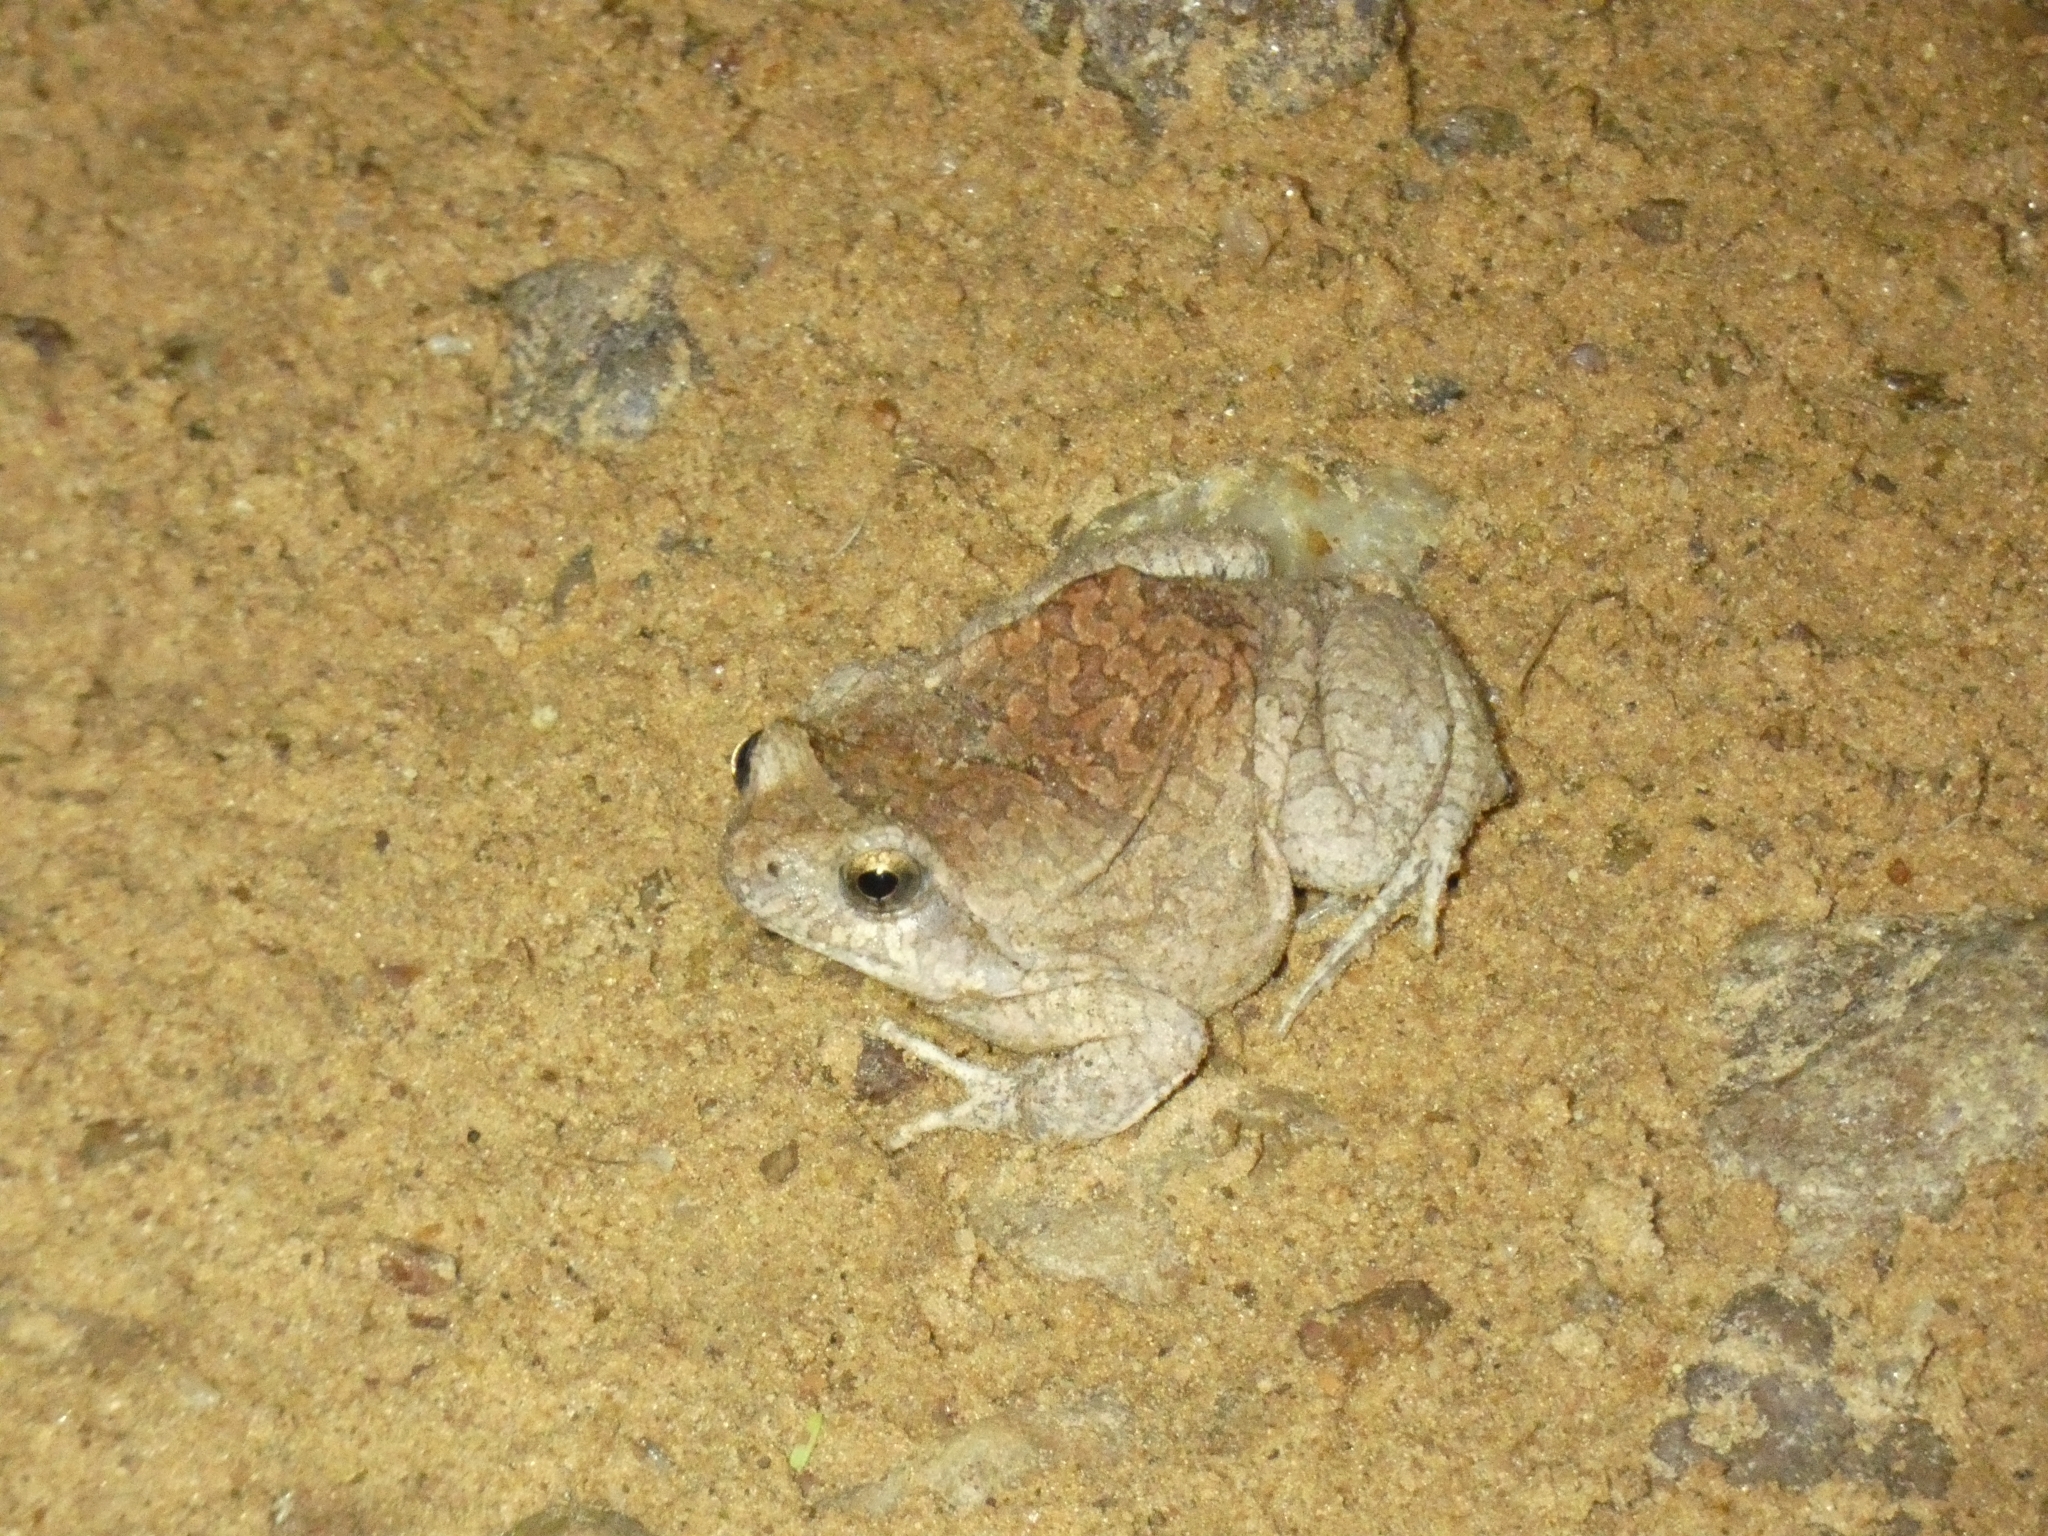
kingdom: Animalia
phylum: Chordata
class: Amphibia
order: Anura
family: Leptodactylidae
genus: Physalaemus
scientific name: Physalaemus nattereri
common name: Cuyaba dwarf frog
